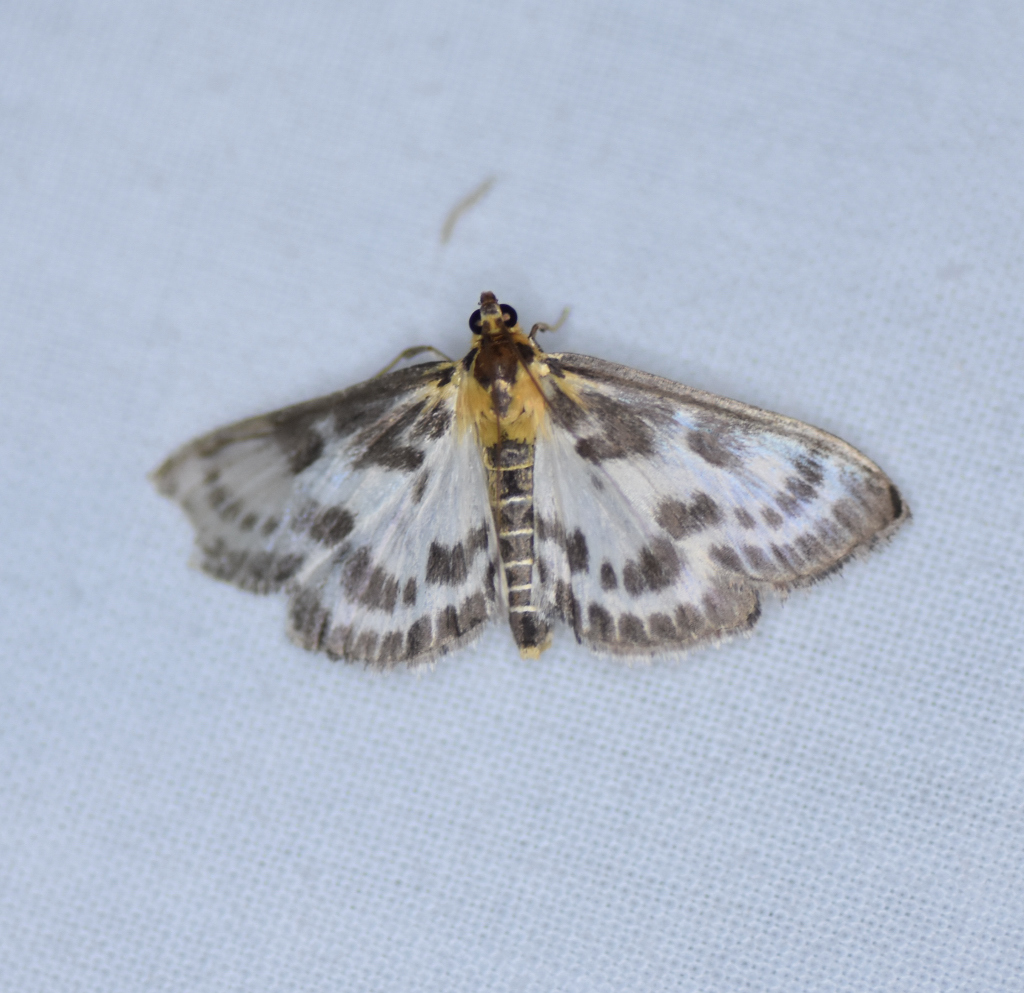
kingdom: Animalia
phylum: Arthropoda
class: Insecta
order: Lepidoptera
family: Crambidae
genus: Anania
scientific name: Anania hortulata
